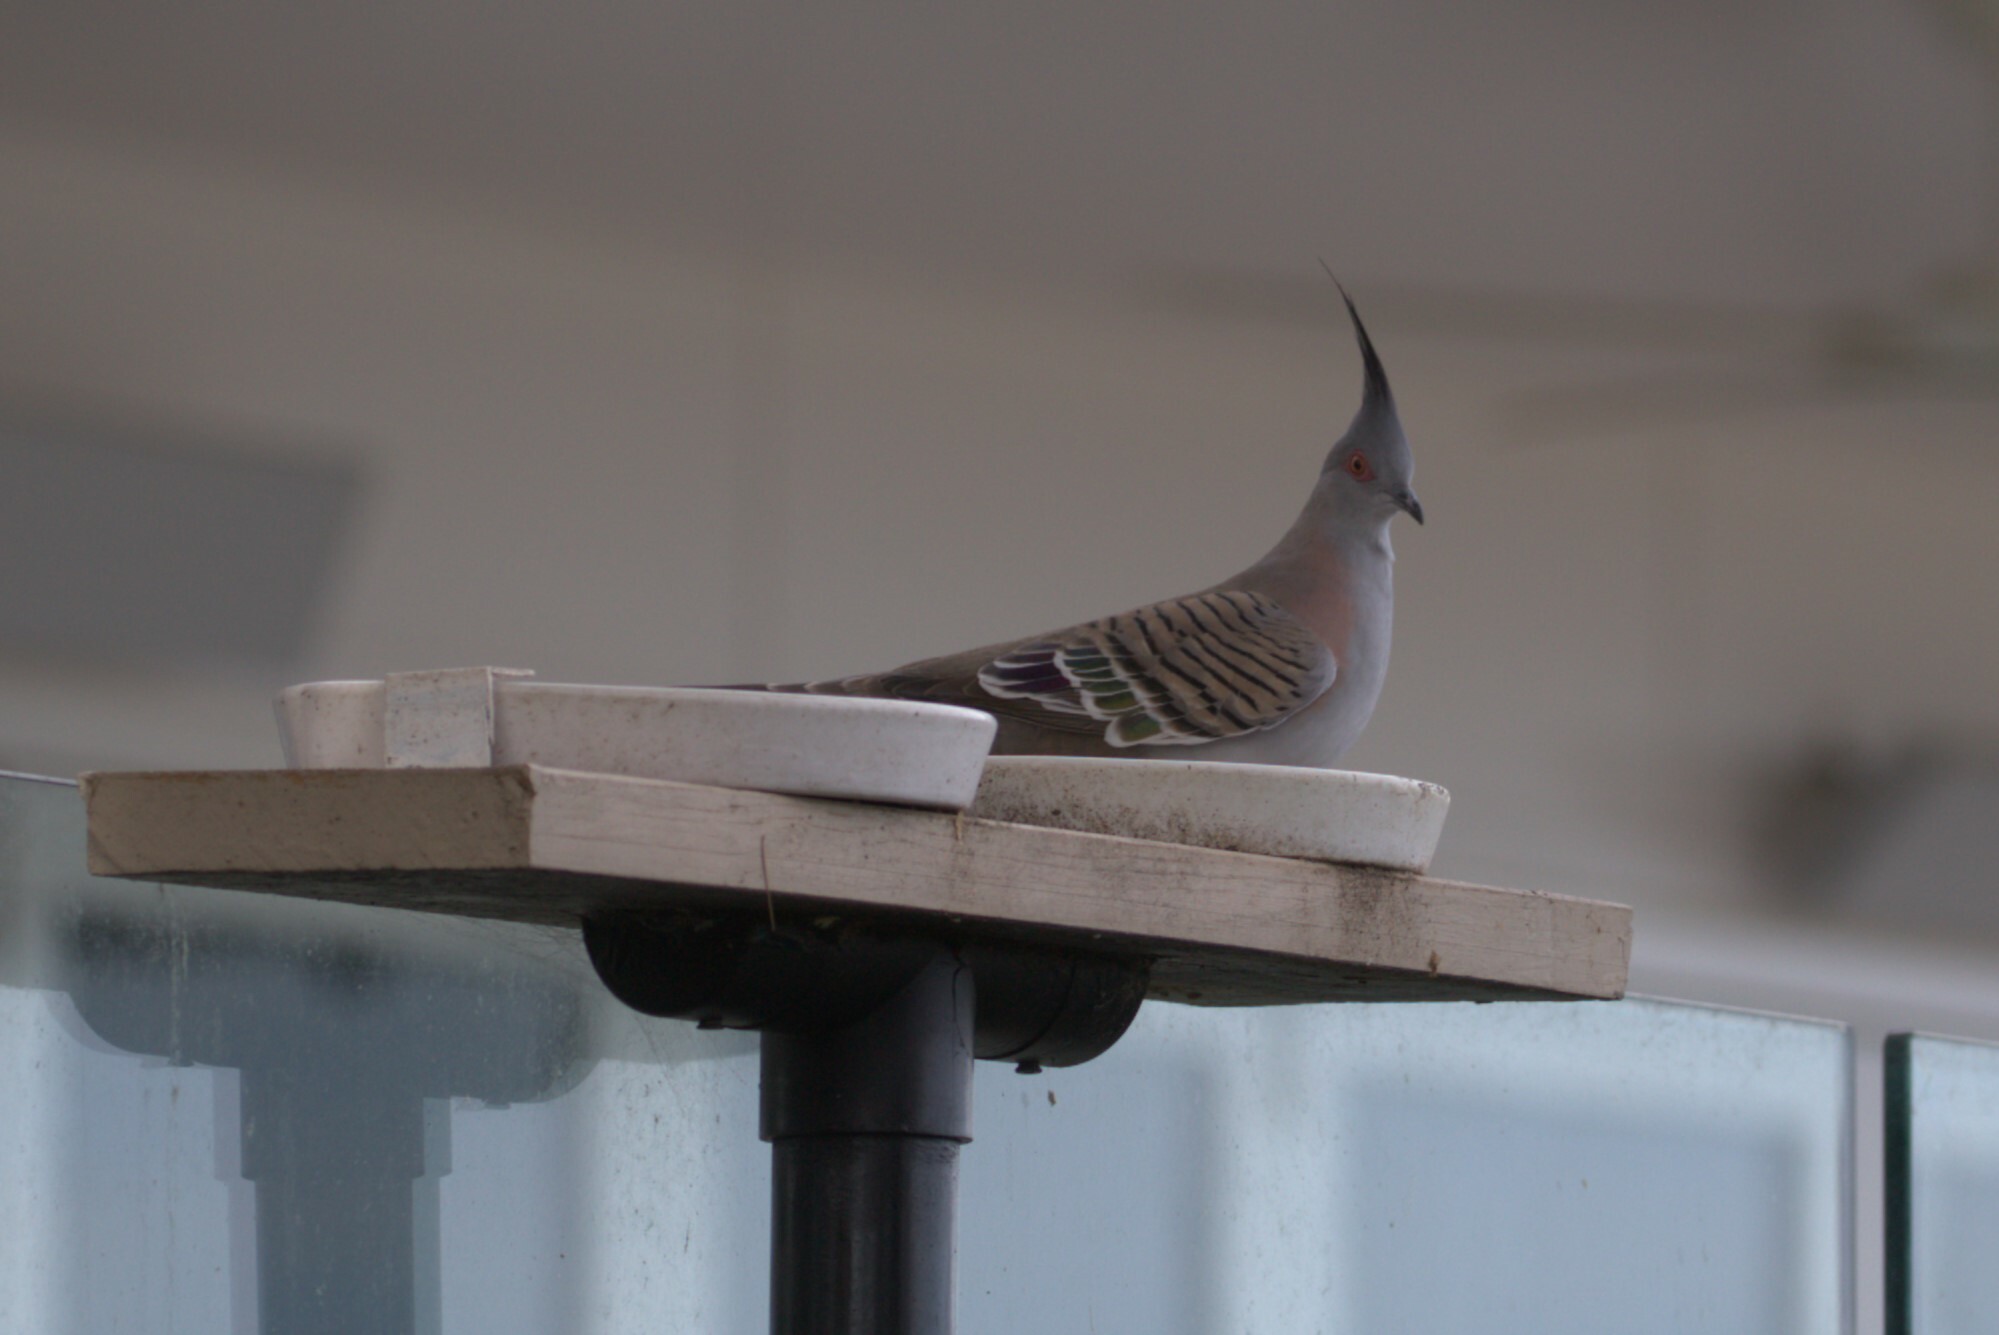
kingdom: Animalia
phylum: Chordata
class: Aves
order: Columbiformes
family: Columbidae
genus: Ocyphaps
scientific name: Ocyphaps lophotes
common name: Crested pigeon
